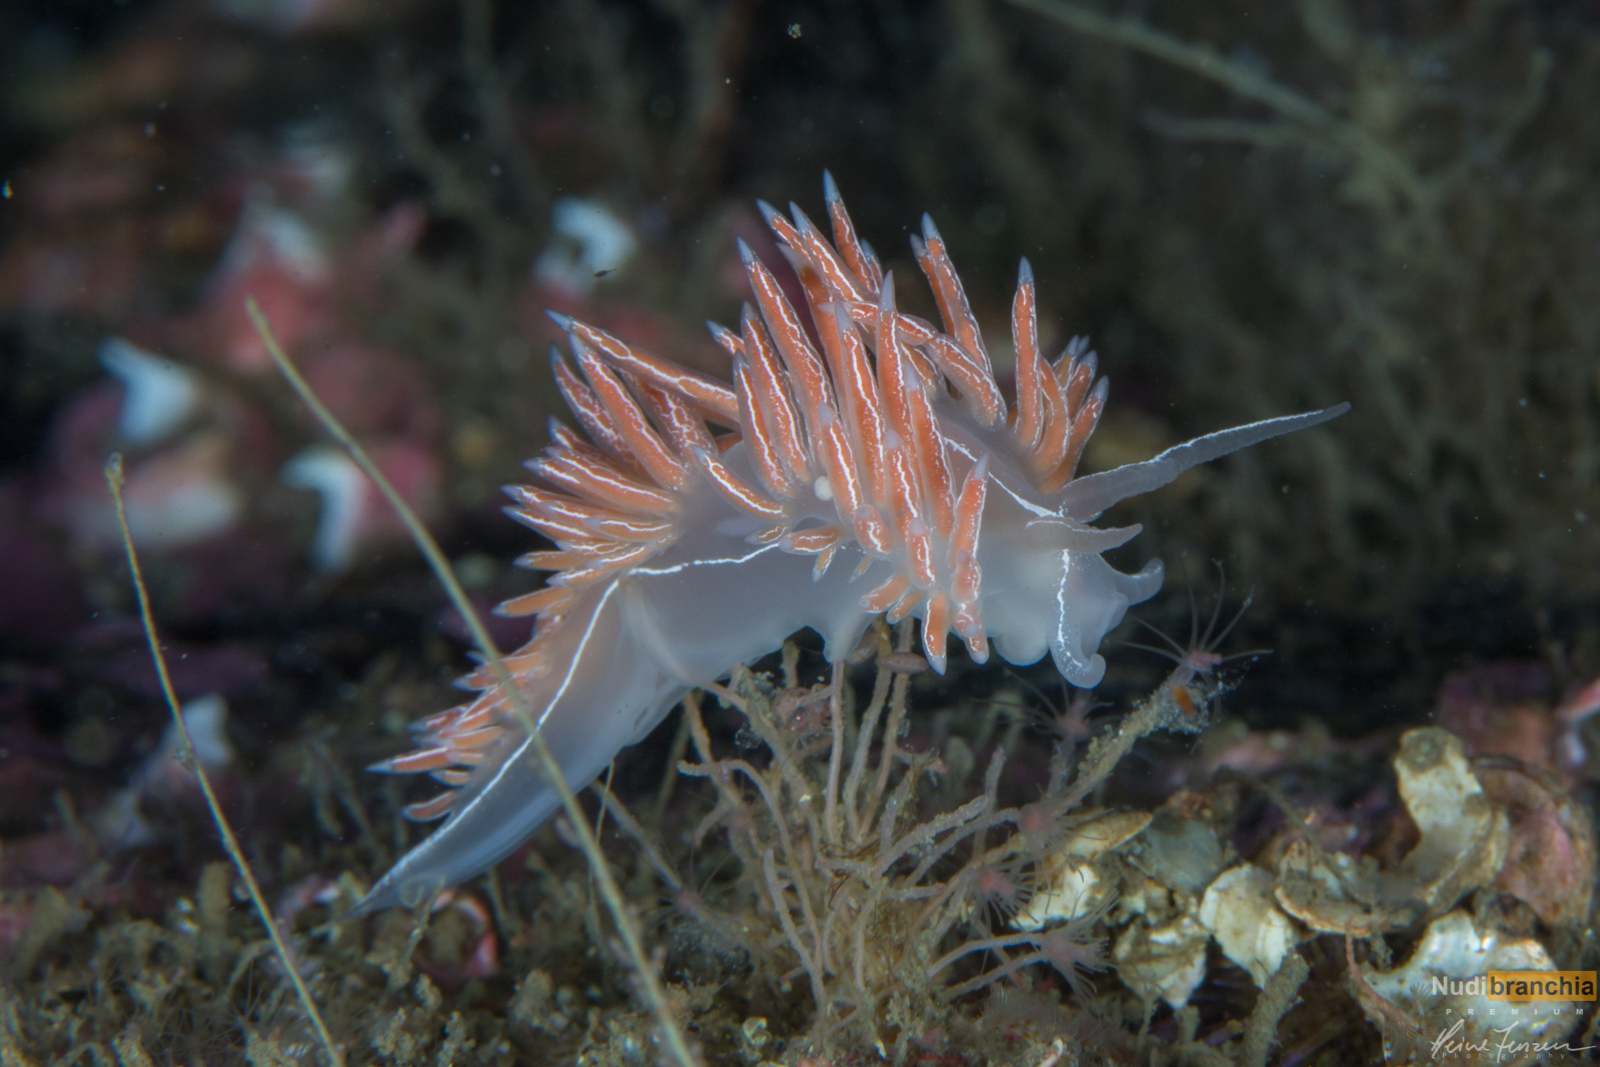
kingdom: Animalia
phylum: Mollusca
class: Gastropoda
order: Nudibranchia
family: Coryphellidae
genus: Coryphella
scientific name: Coryphella chriskaugei
